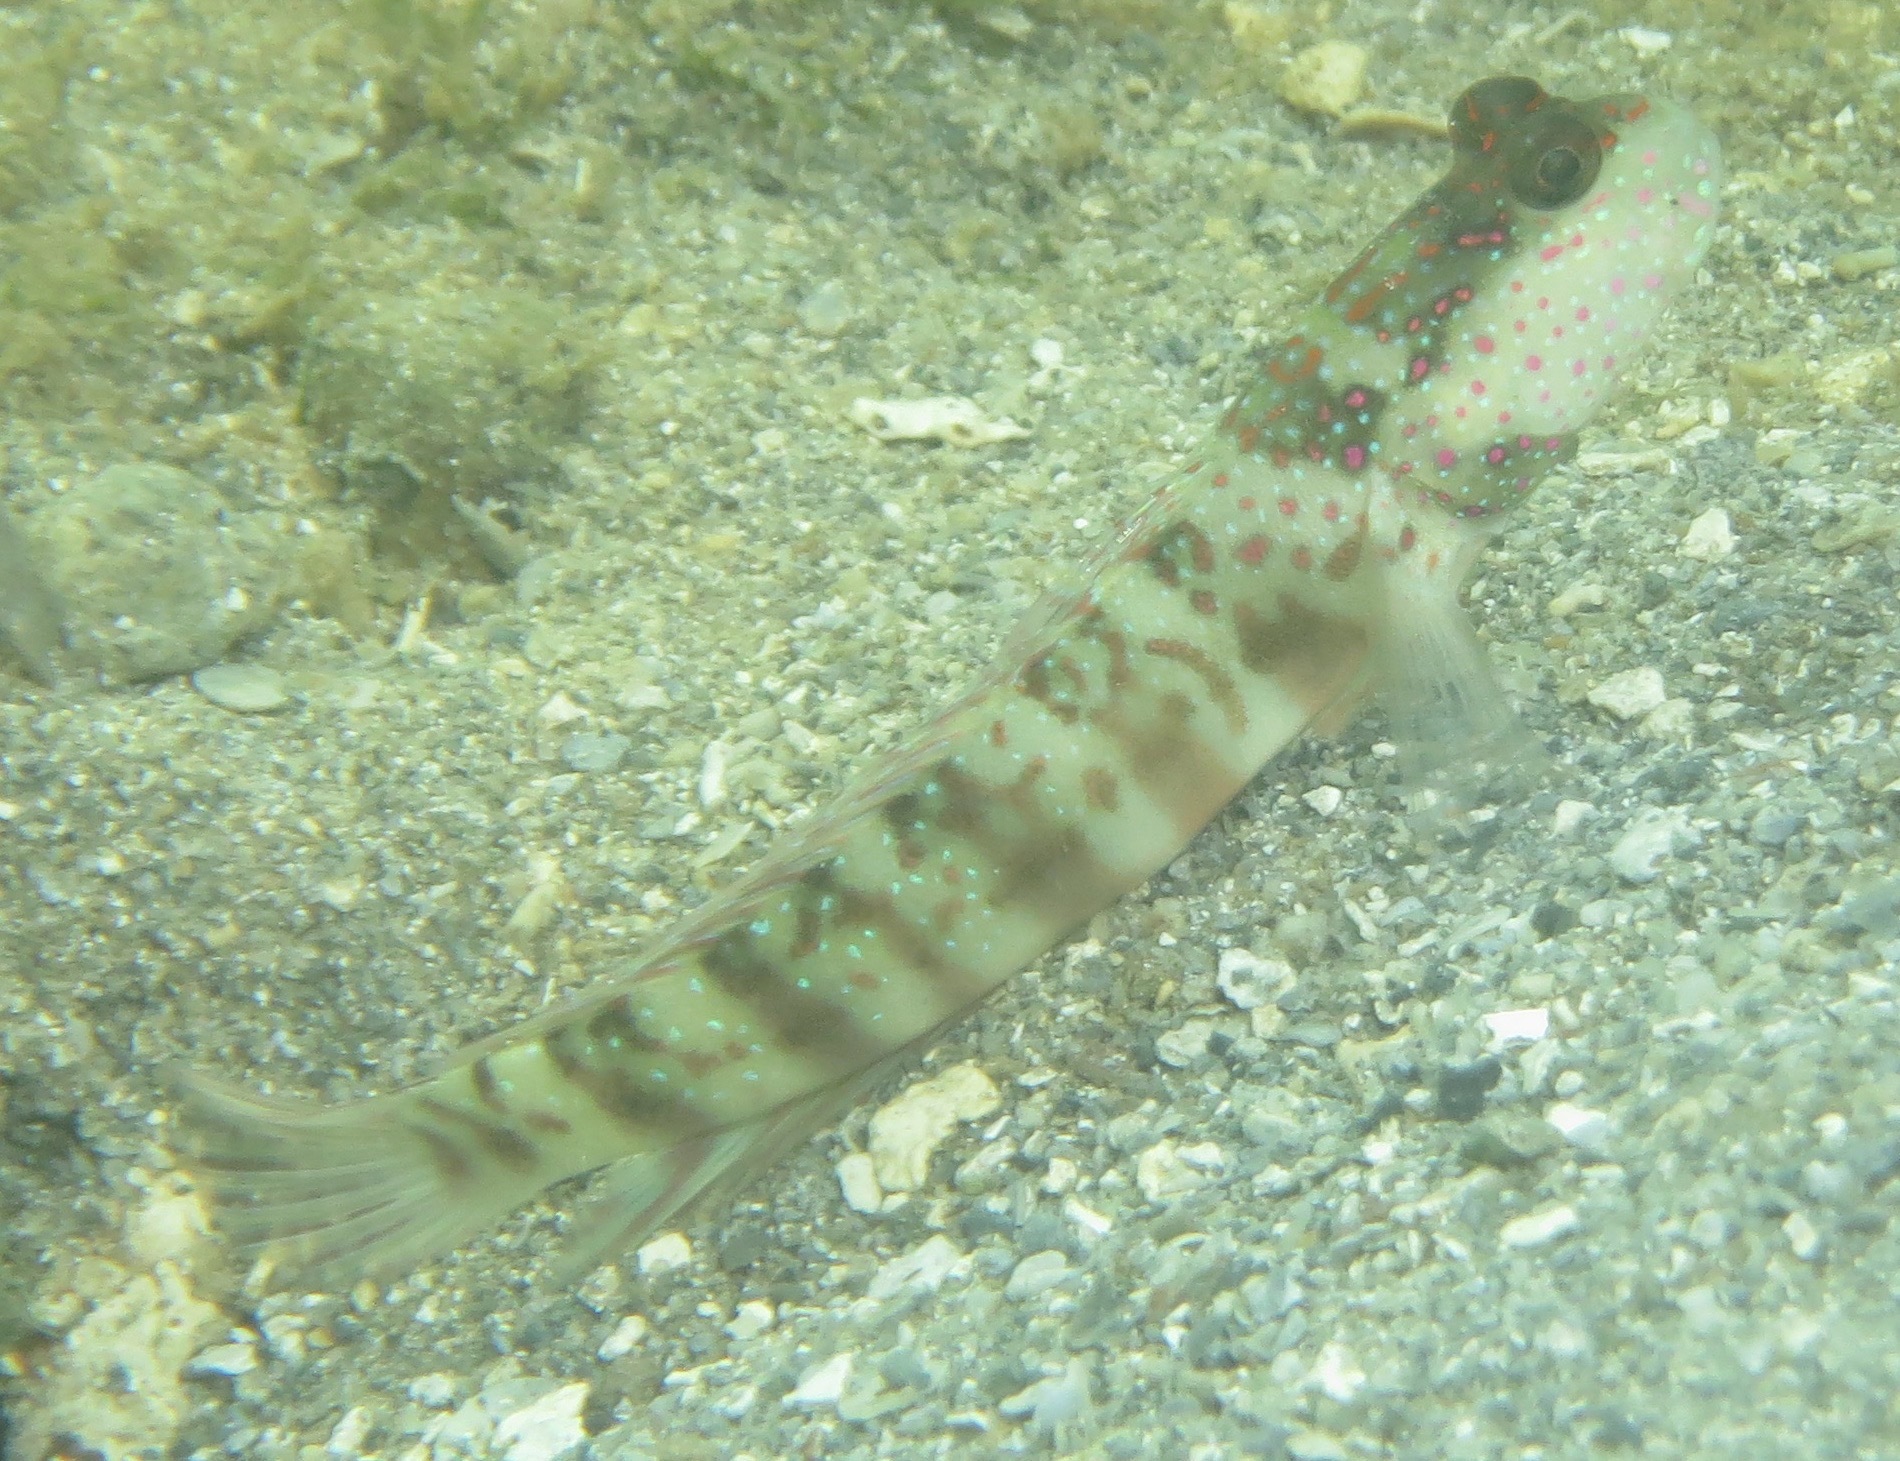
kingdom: Animalia
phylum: Chordata
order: Perciformes
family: Gobiidae
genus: Cryptocentrus
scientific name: Cryptocentrus leptocephalus
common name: Leptocephalus prawn-goby
